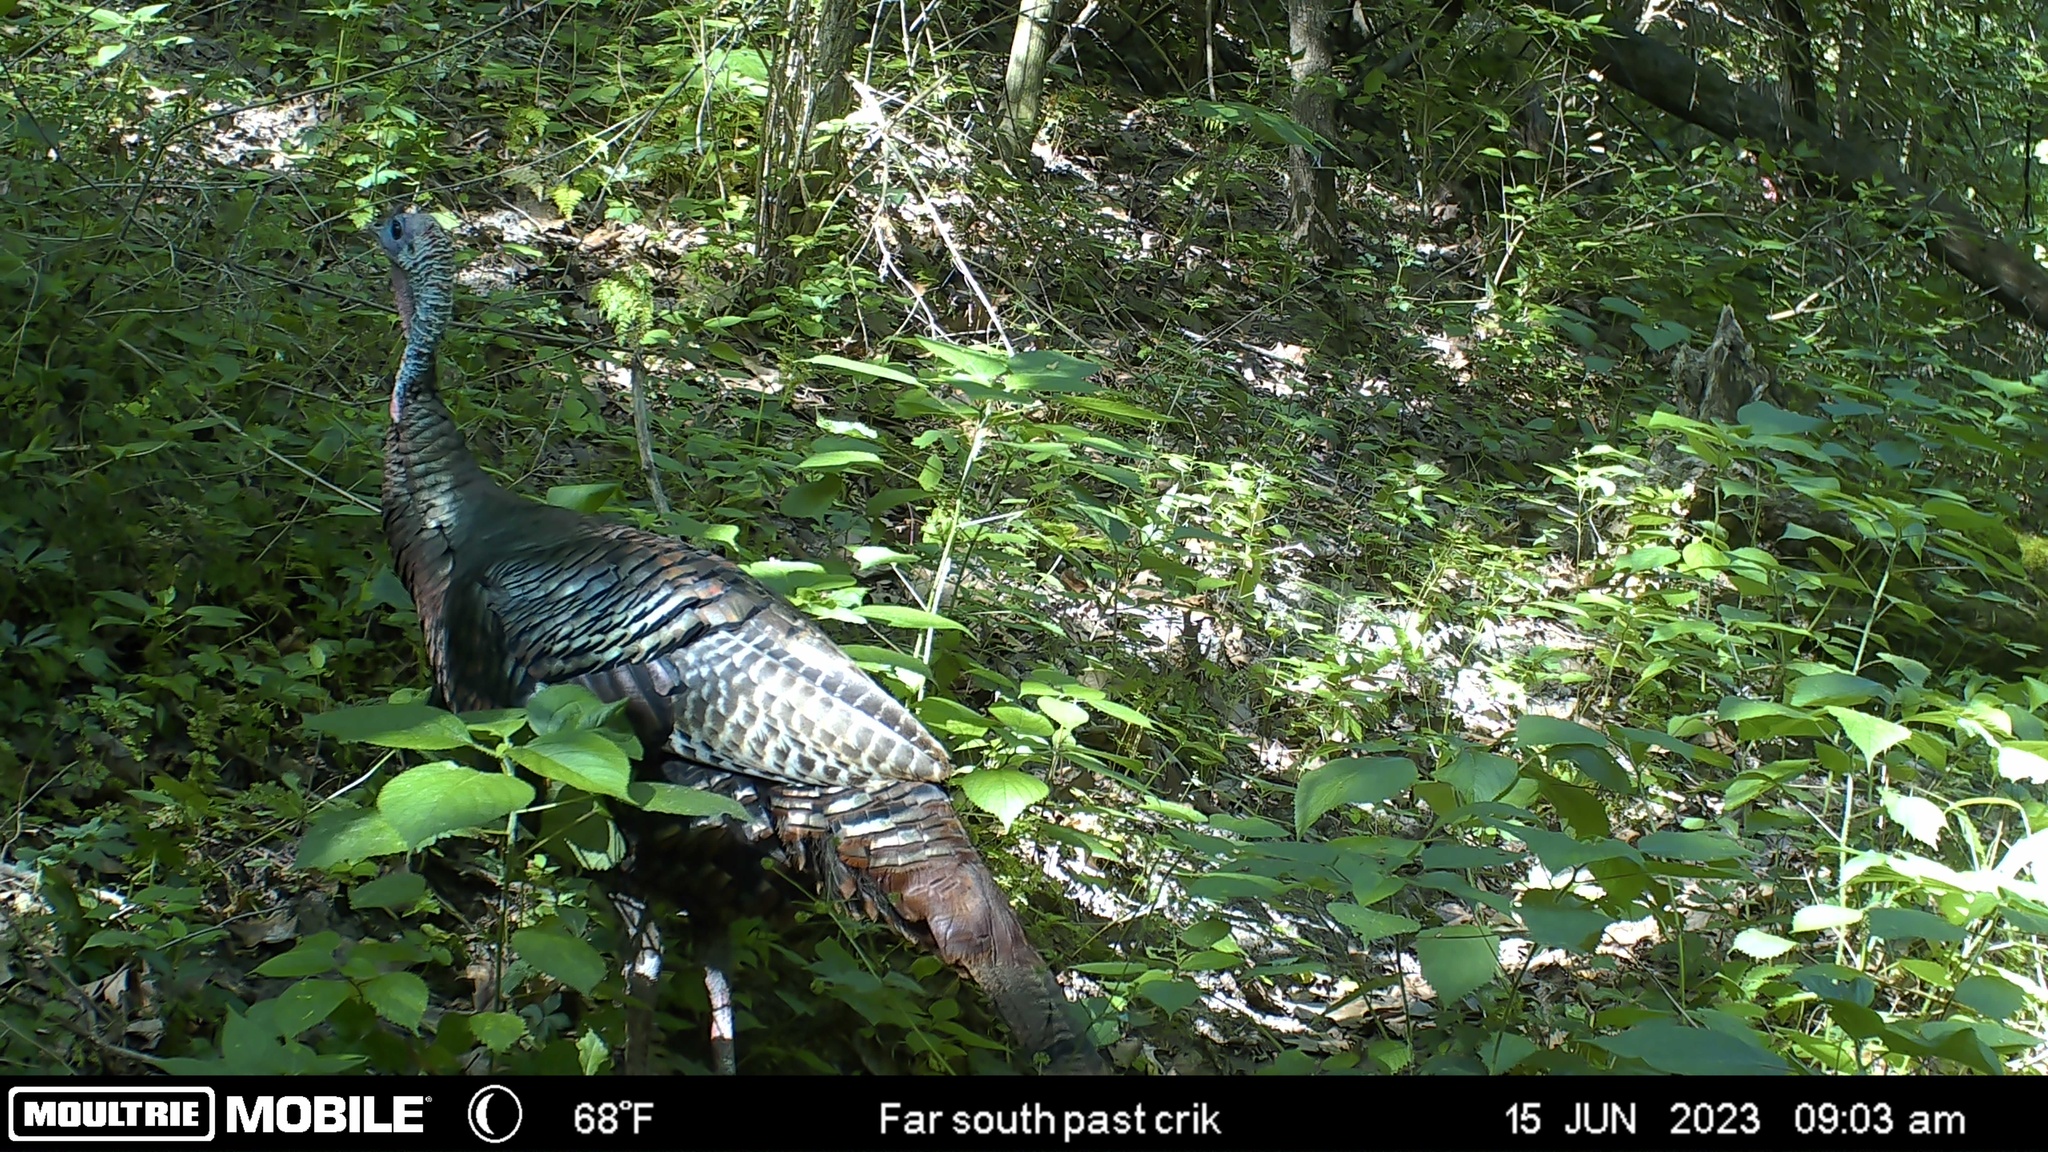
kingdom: Animalia
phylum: Chordata
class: Aves
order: Galliformes
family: Phasianidae
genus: Meleagris
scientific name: Meleagris gallopavo
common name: Wild turkey
